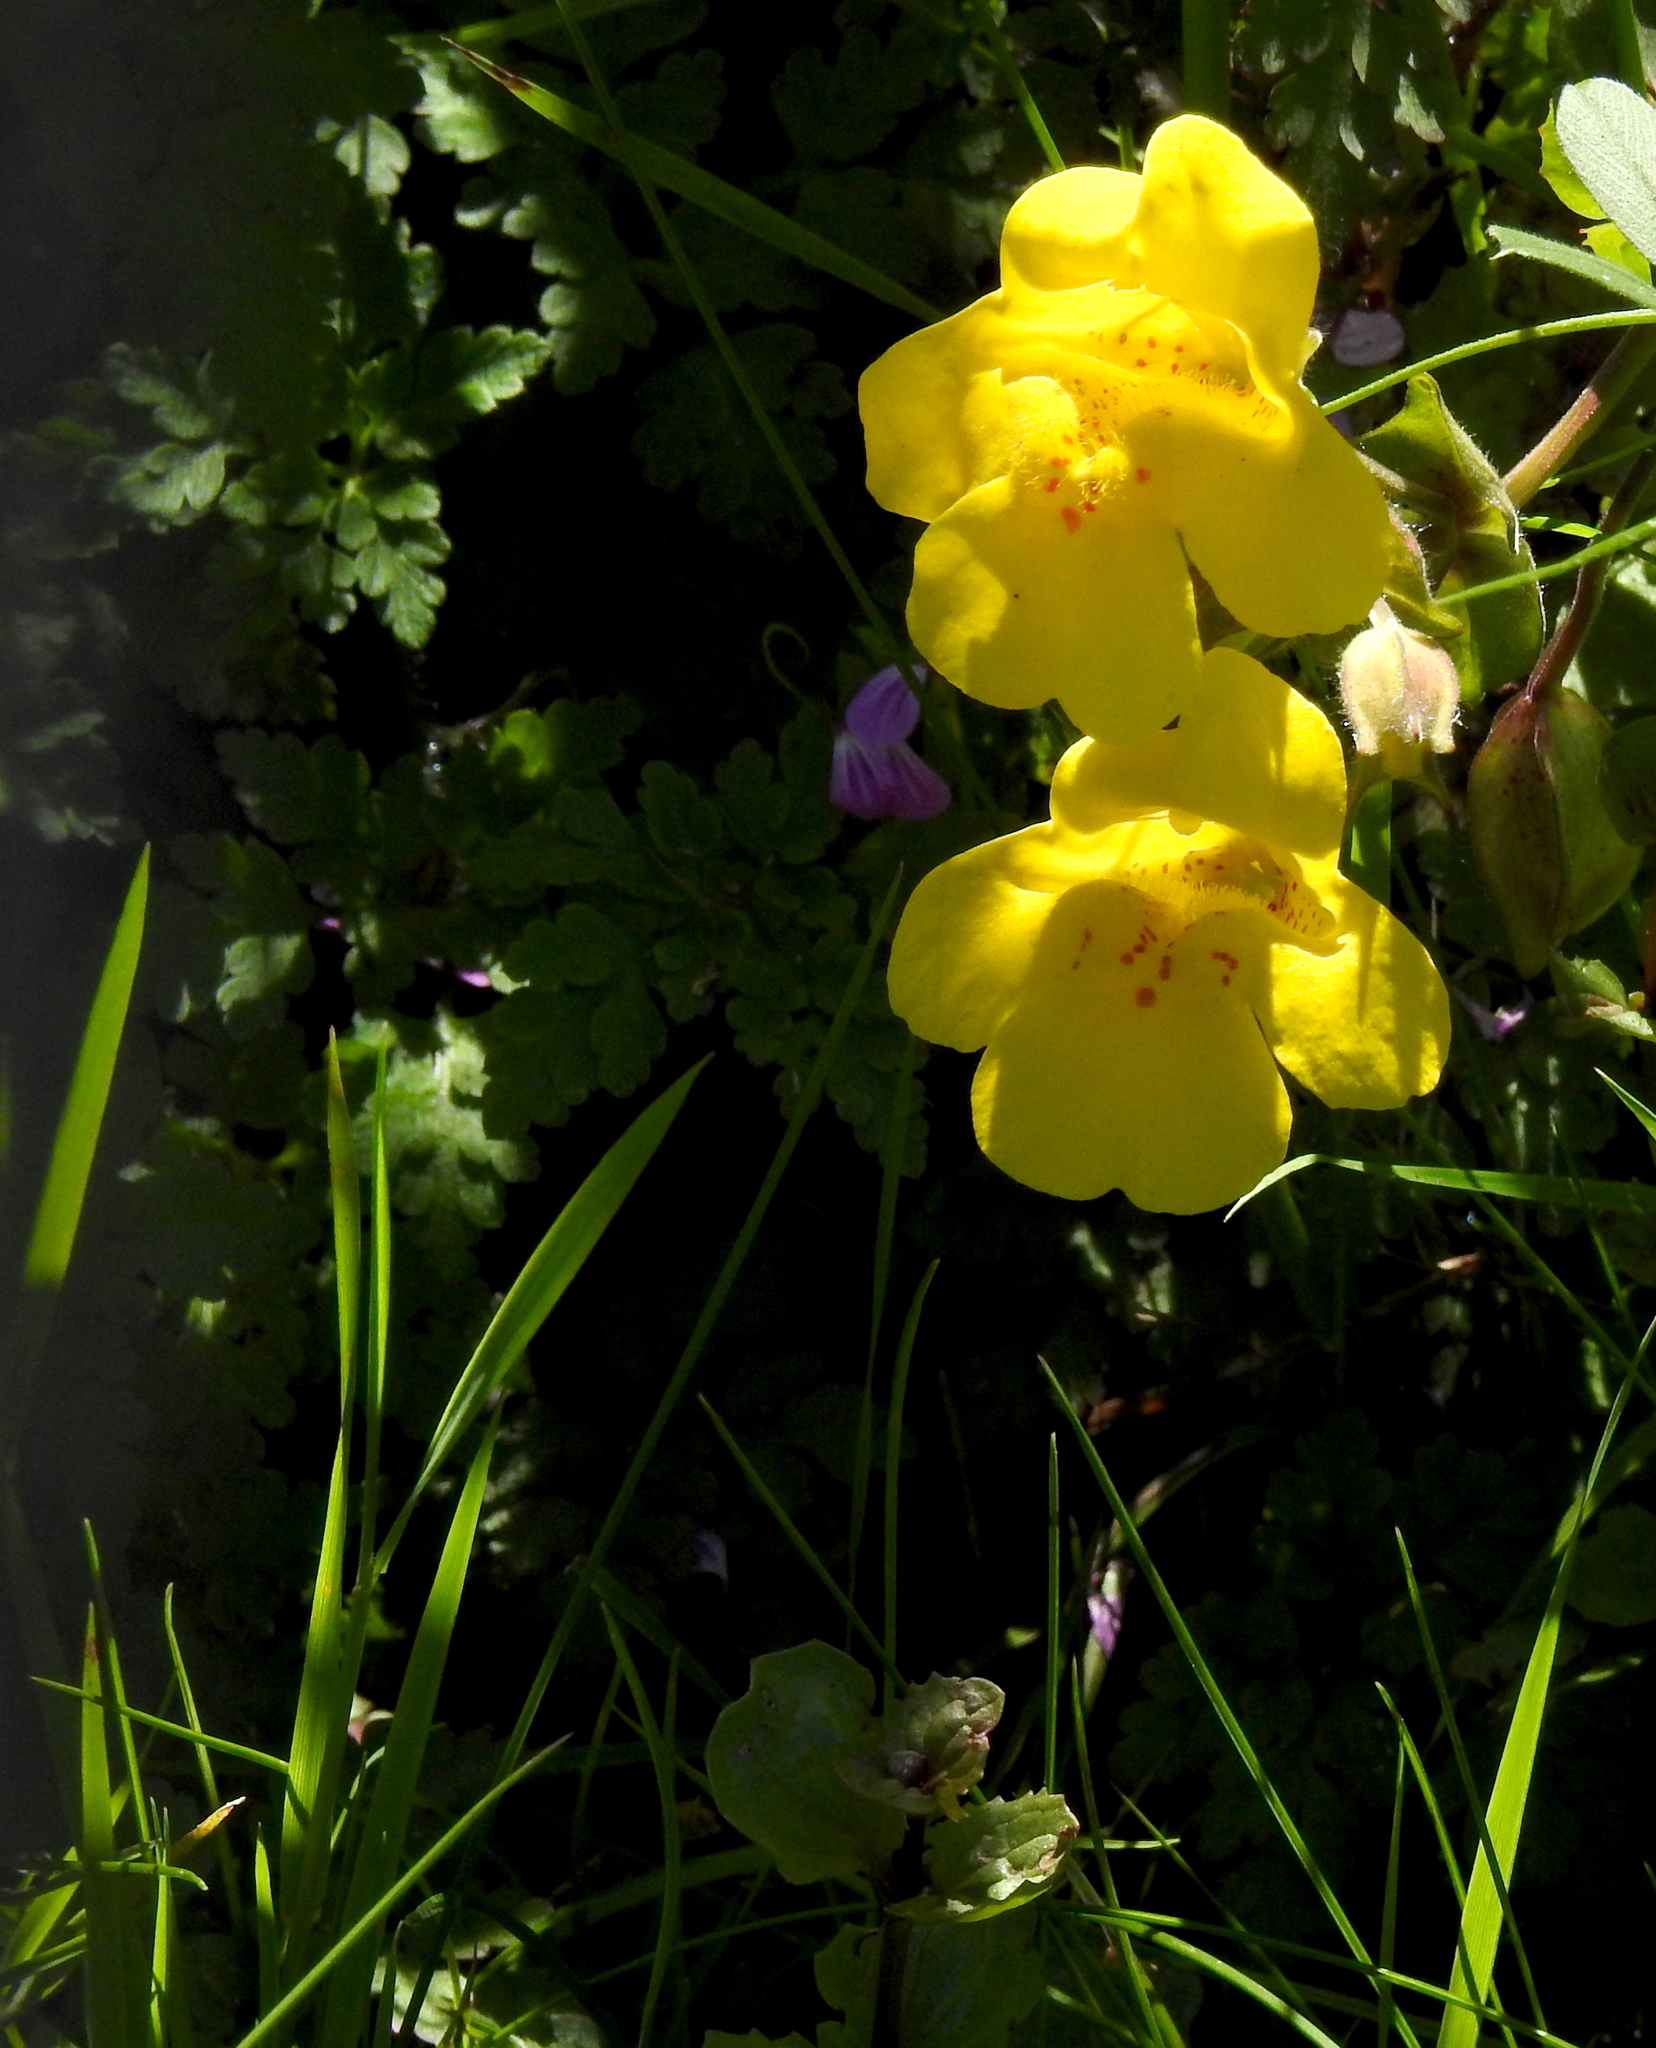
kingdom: Plantae
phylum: Tracheophyta
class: Magnoliopsida
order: Lamiales
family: Phrymaceae
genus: Erythranthe
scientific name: Erythranthe guttata
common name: Monkeyflower
